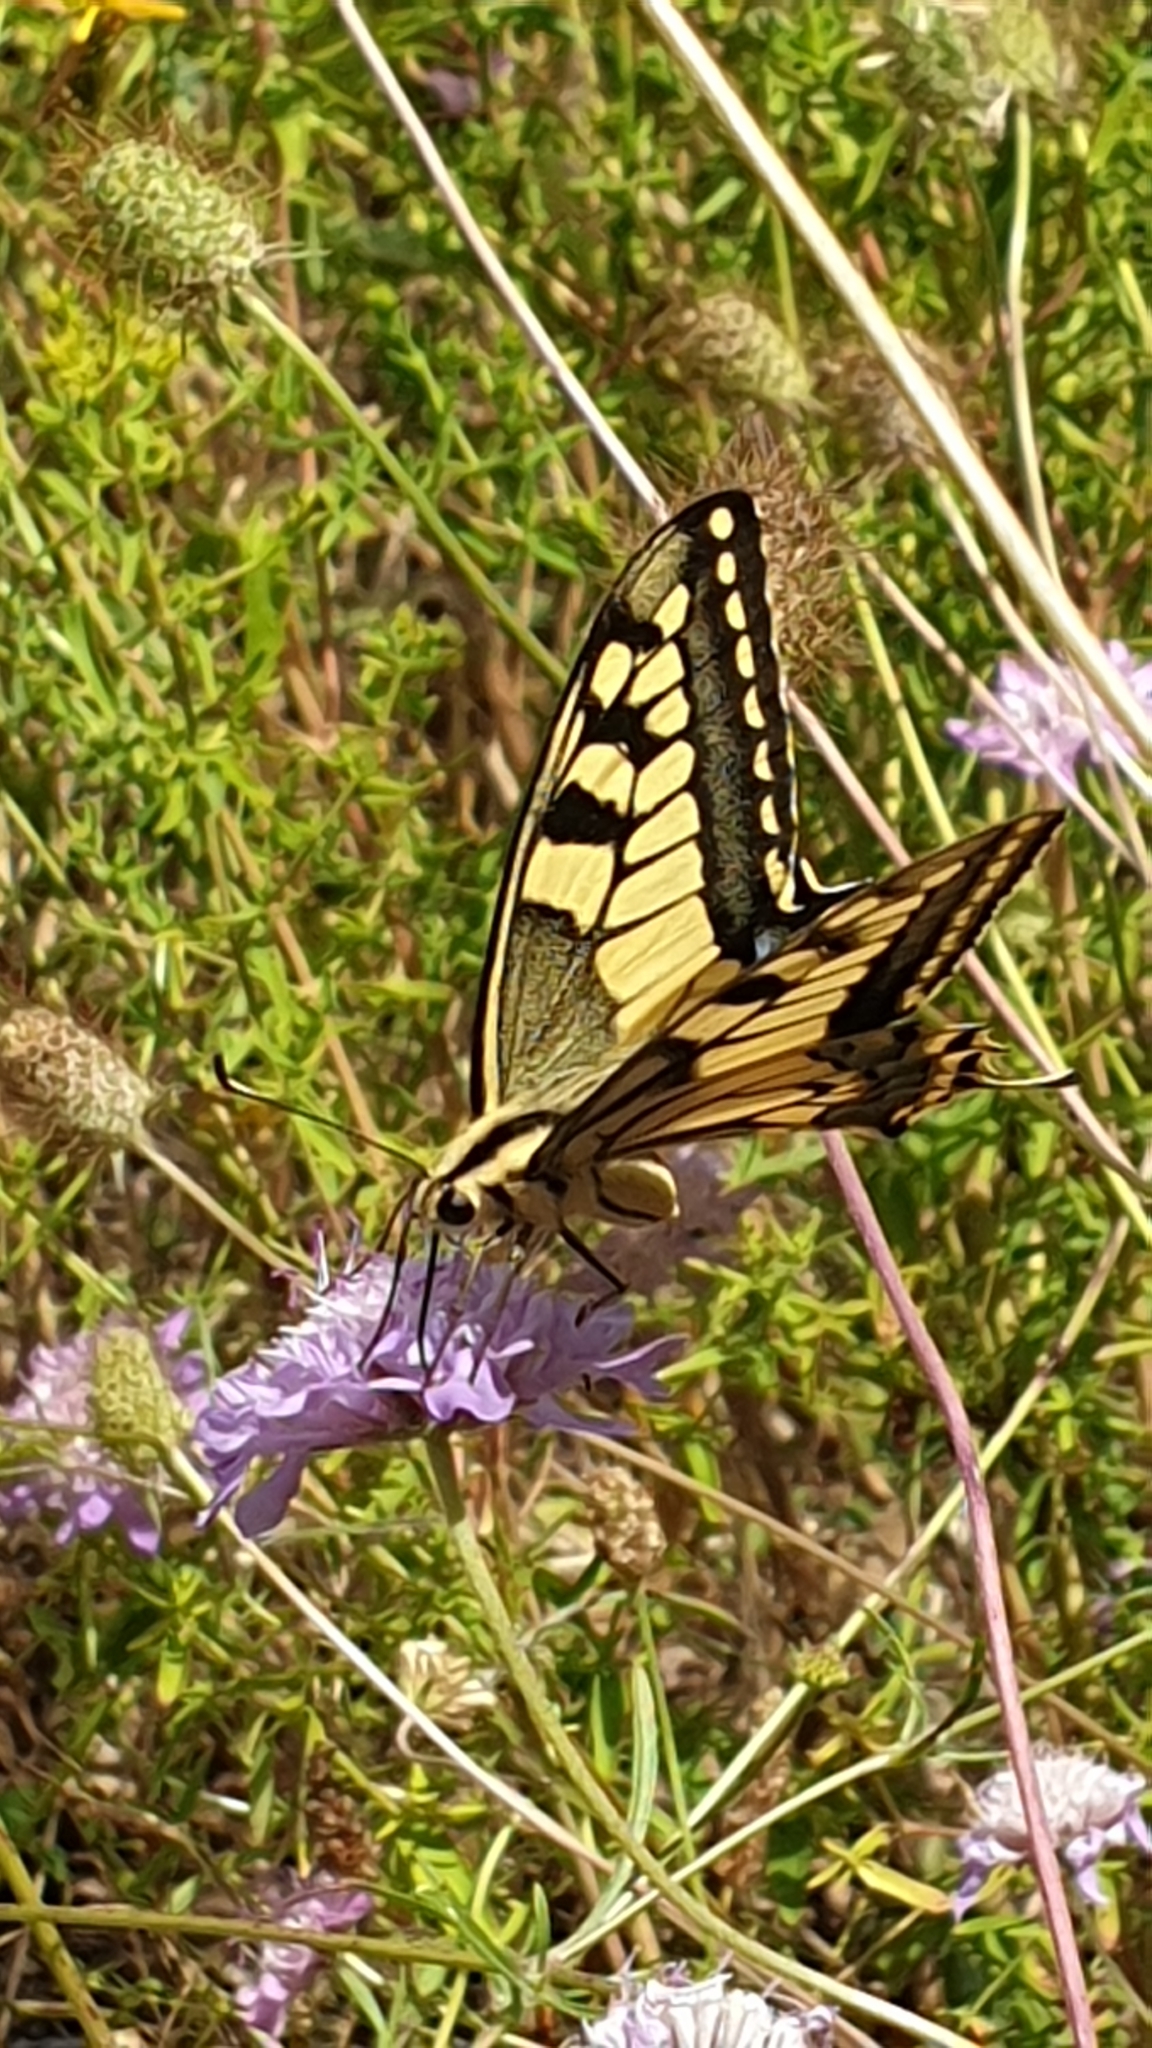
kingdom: Animalia
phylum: Arthropoda
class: Insecta
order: Lepidoptera
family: Papilionidae
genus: Papilio
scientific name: Papilio machaon
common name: Swallowtail
